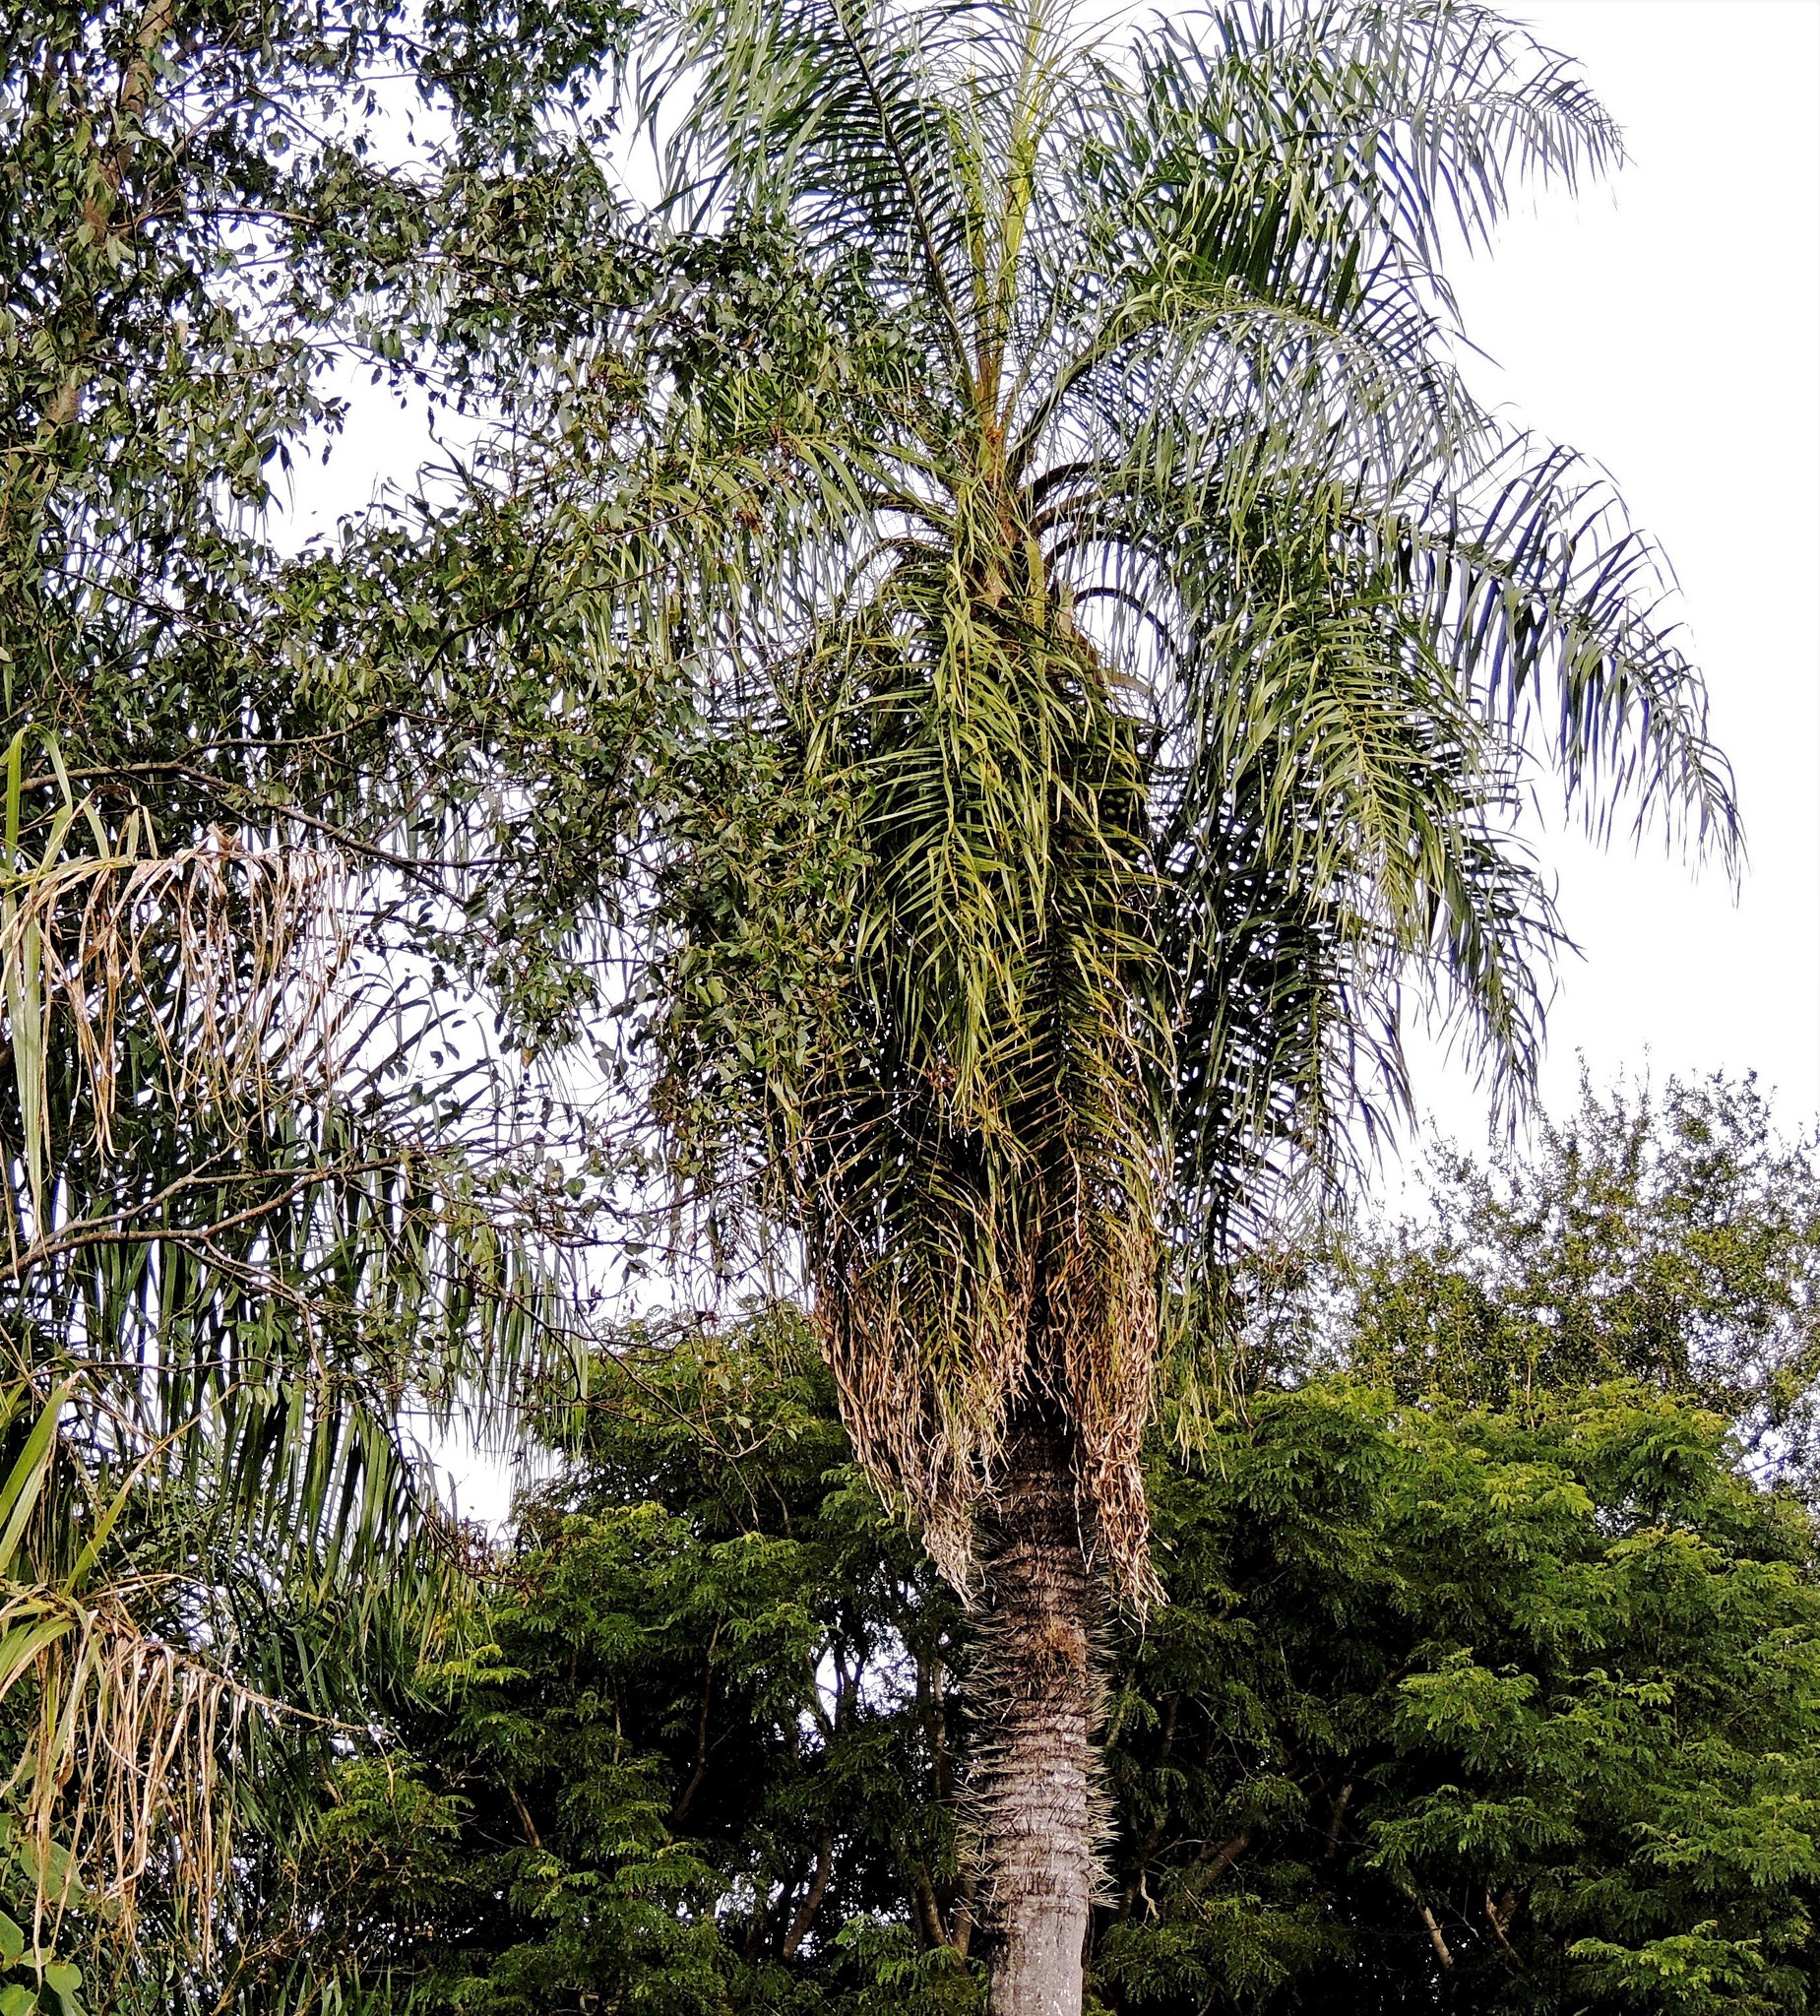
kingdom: Plantae
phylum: Tracheophyta
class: Liliopsida
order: Arecales
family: Arecaceae
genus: Acrocomia
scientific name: Acrocomia aculeata
